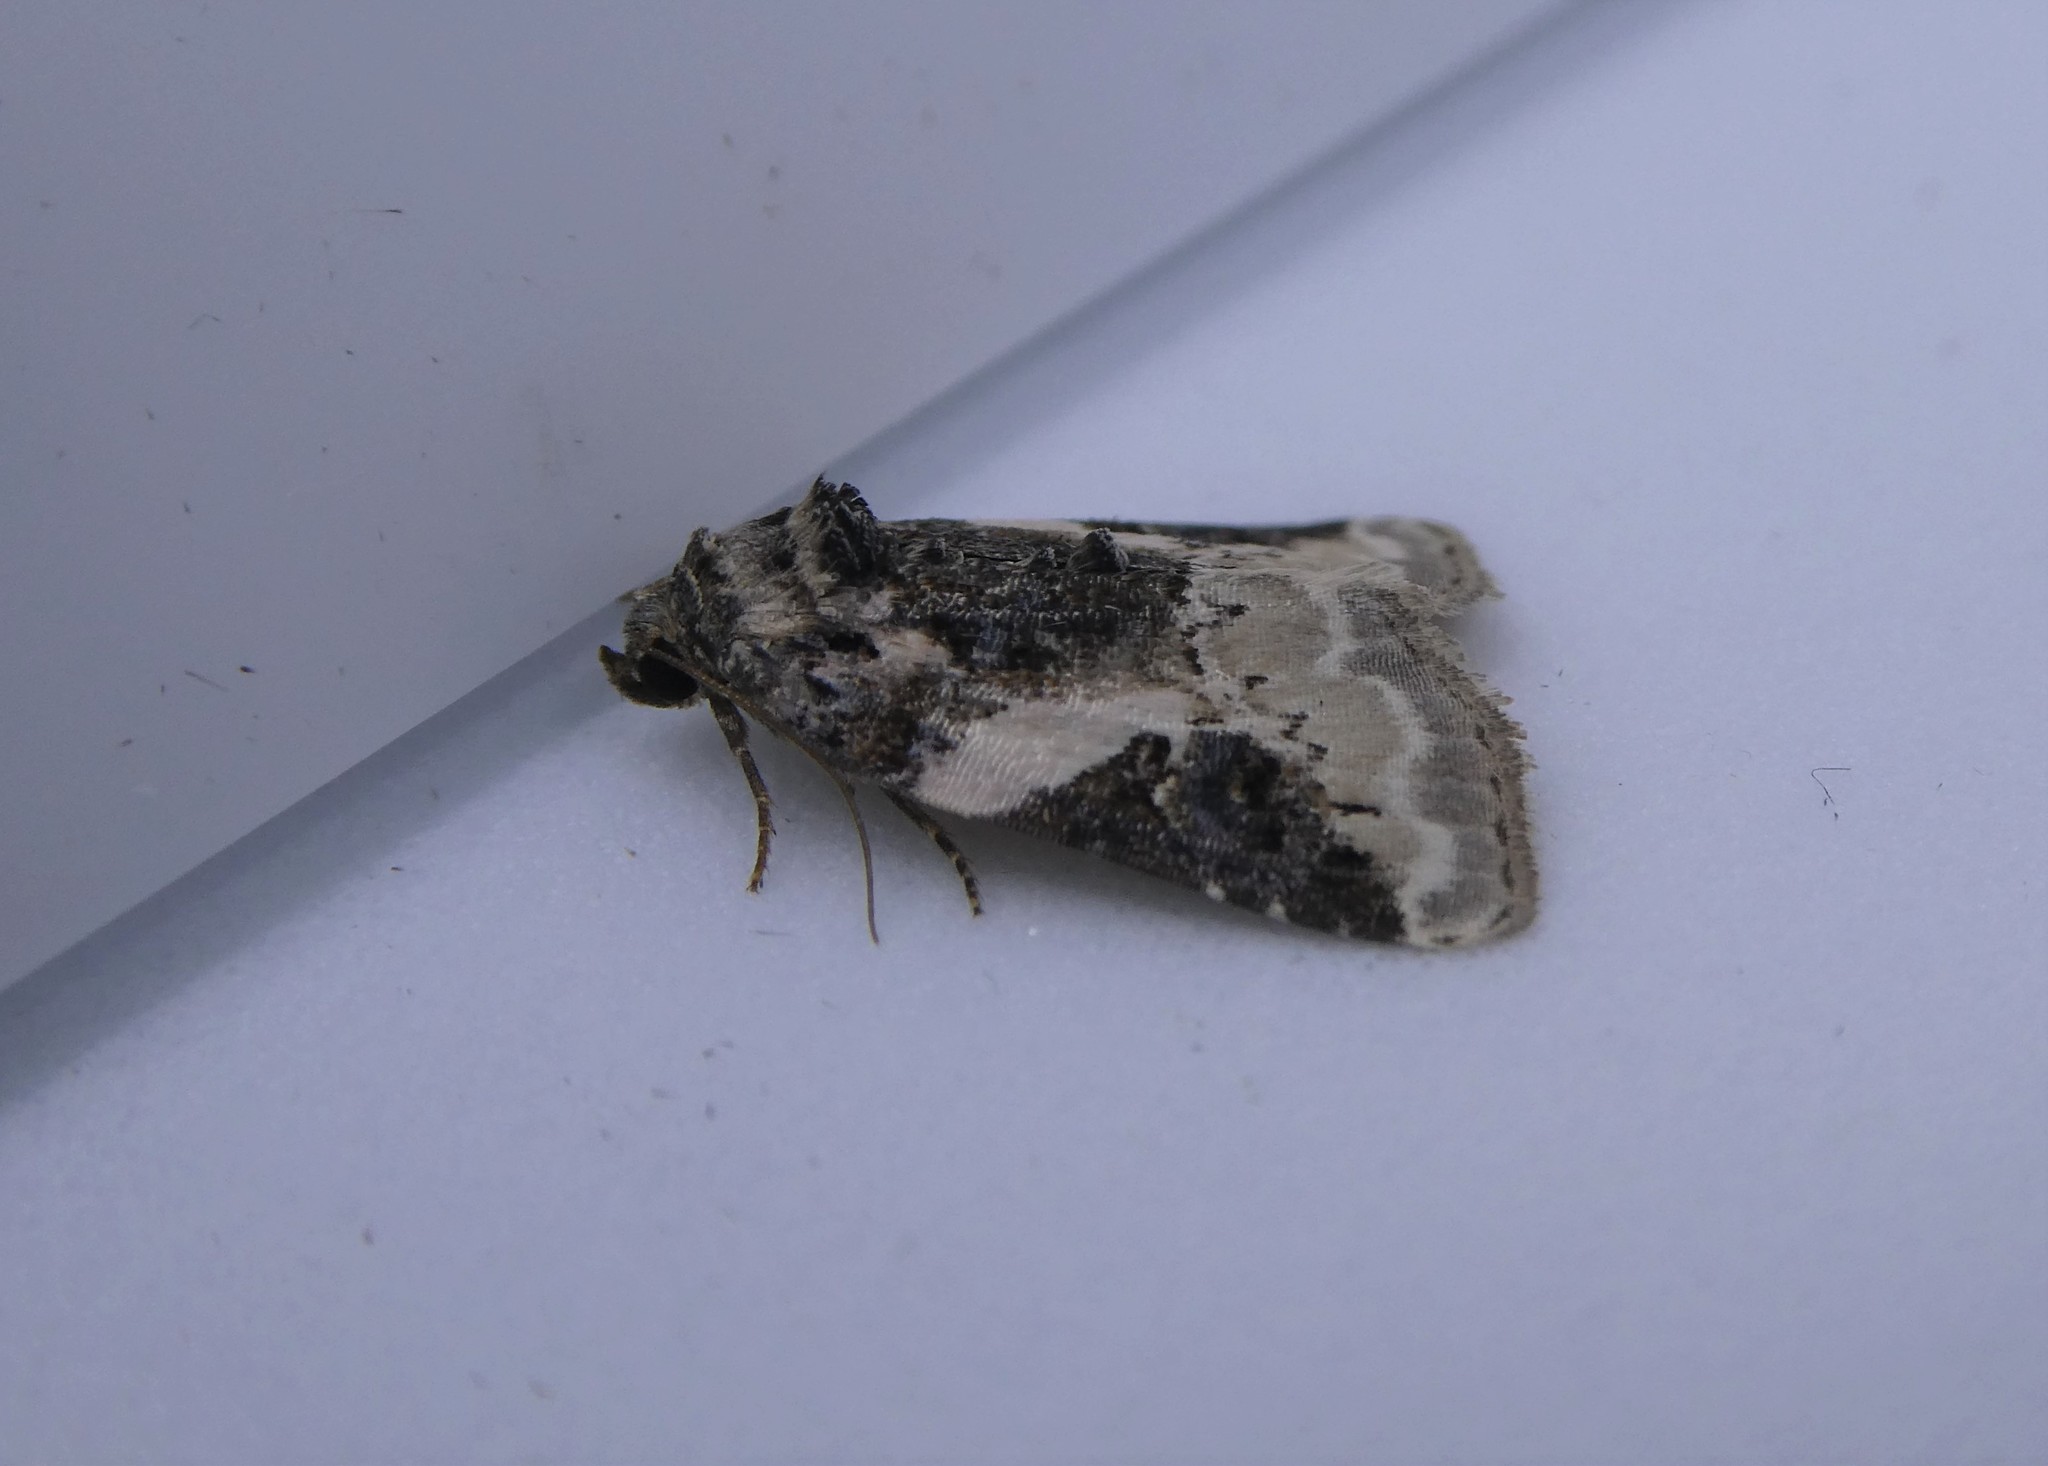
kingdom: Animalia
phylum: Arthropoda
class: Insecta
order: Lepidoptera
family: Noctuidae
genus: Pseudeustrotia
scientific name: Pseudeustrotia carneola
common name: Pink-barred lithacodia moth
